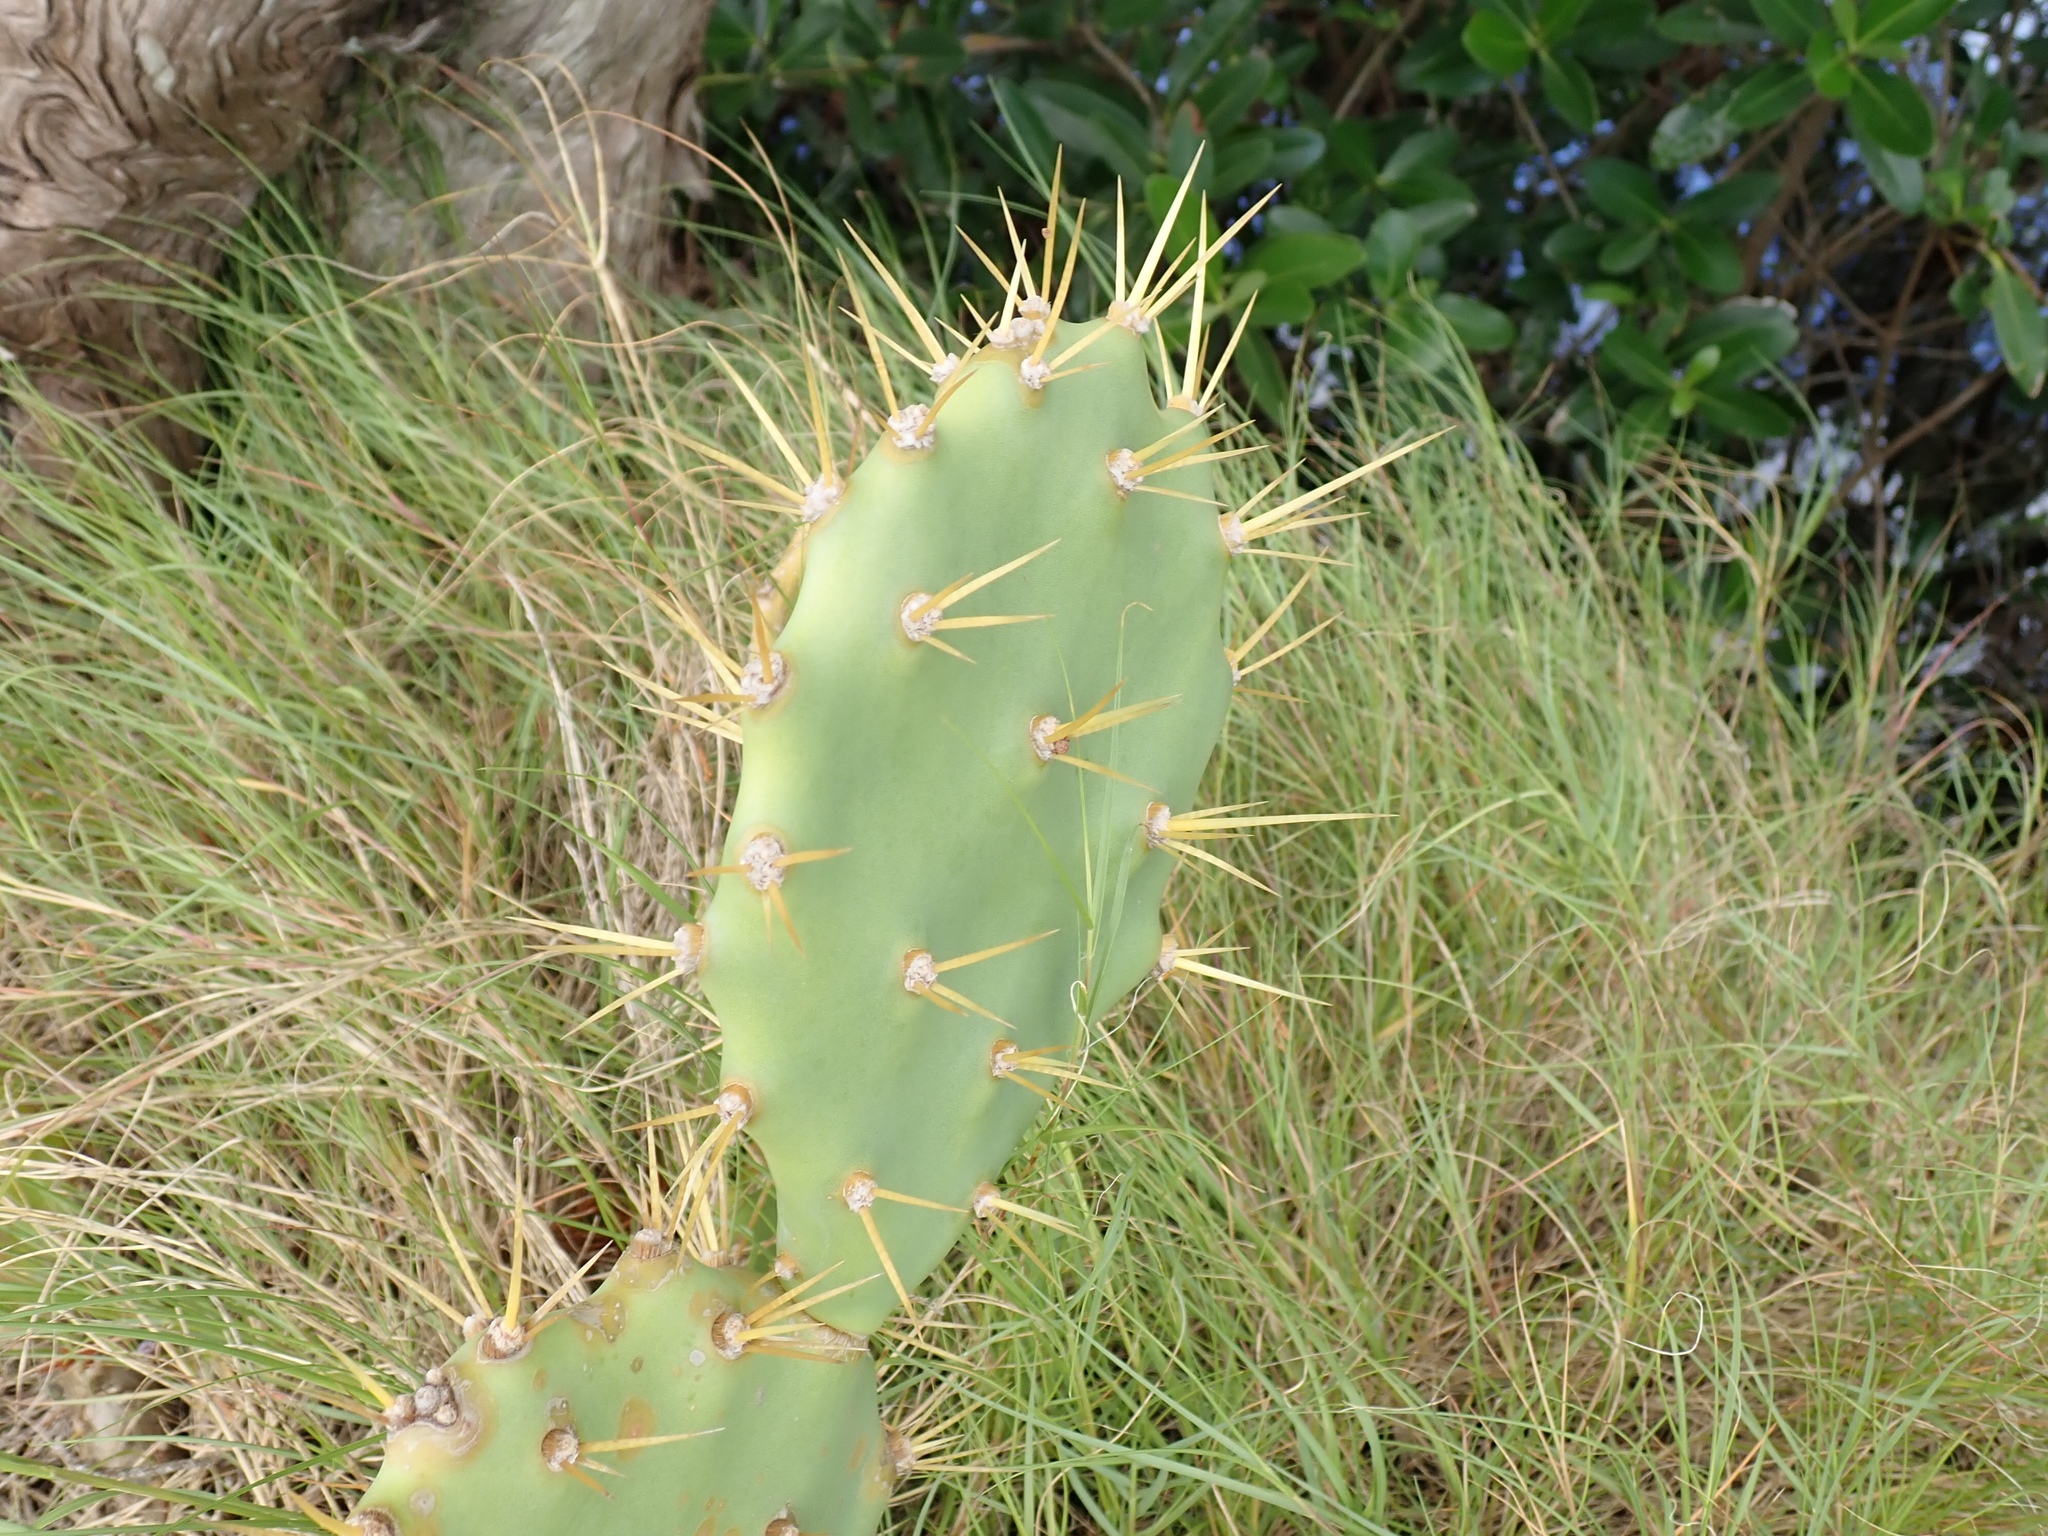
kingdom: Plantae
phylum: Tracheophyta
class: Magnoliopsida
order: Caryophyllales
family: Cactaceae
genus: Opuntia
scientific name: Opuntia dillenii
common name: Sour prickle
